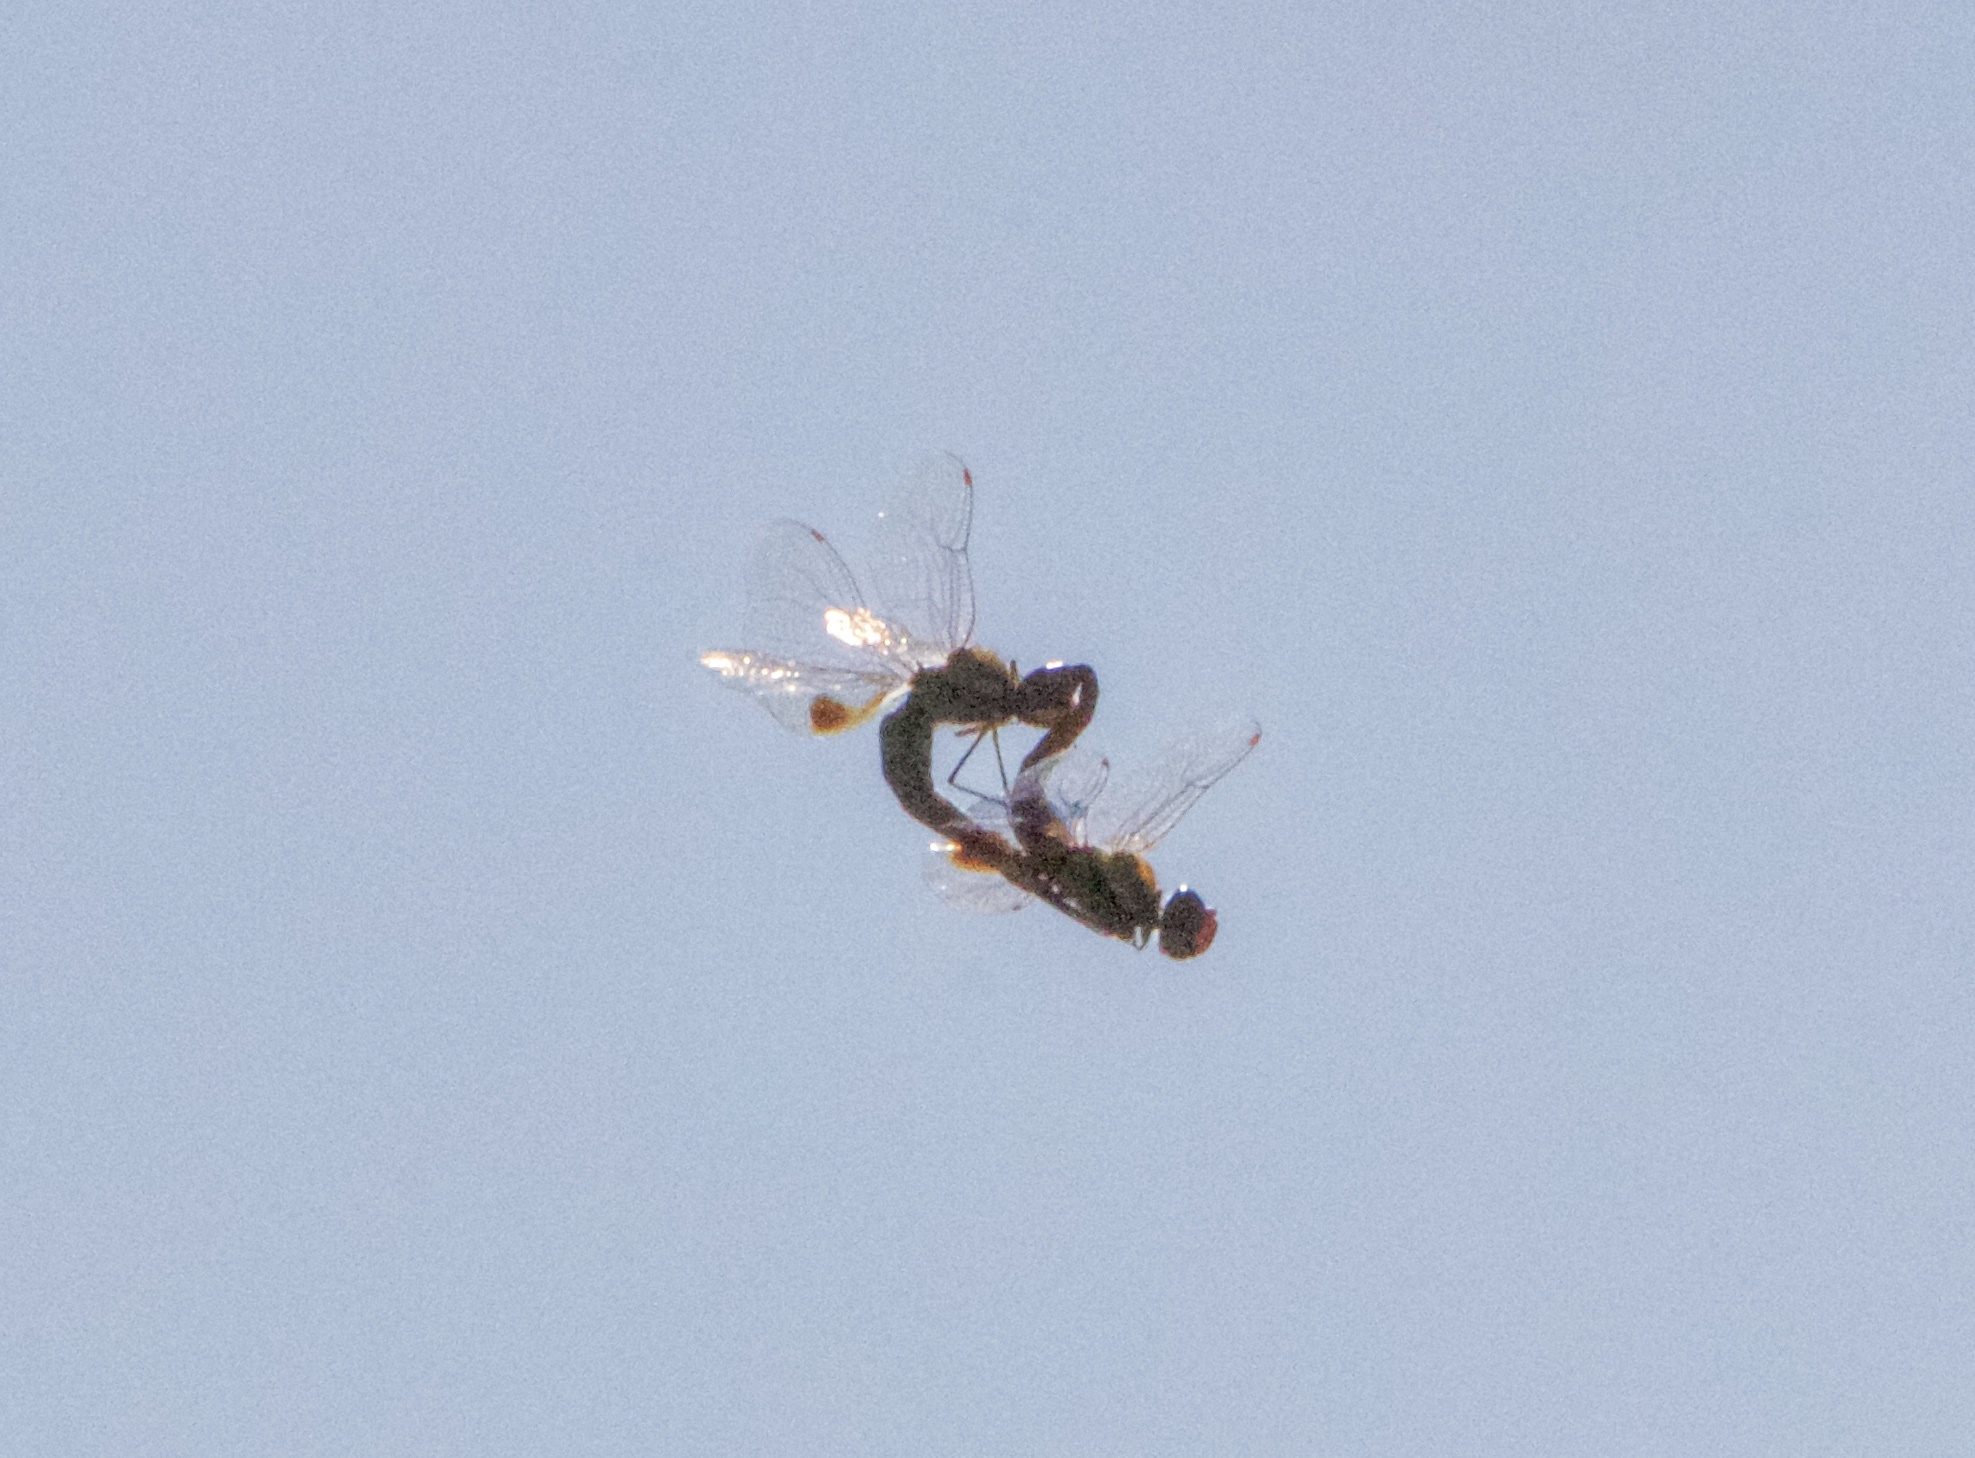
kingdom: Animalia
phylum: Arthropoda
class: Insecta
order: Odonata
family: Libellulidae
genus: Pantala
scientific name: Pantala hymenaea
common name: Spot-winged glider
